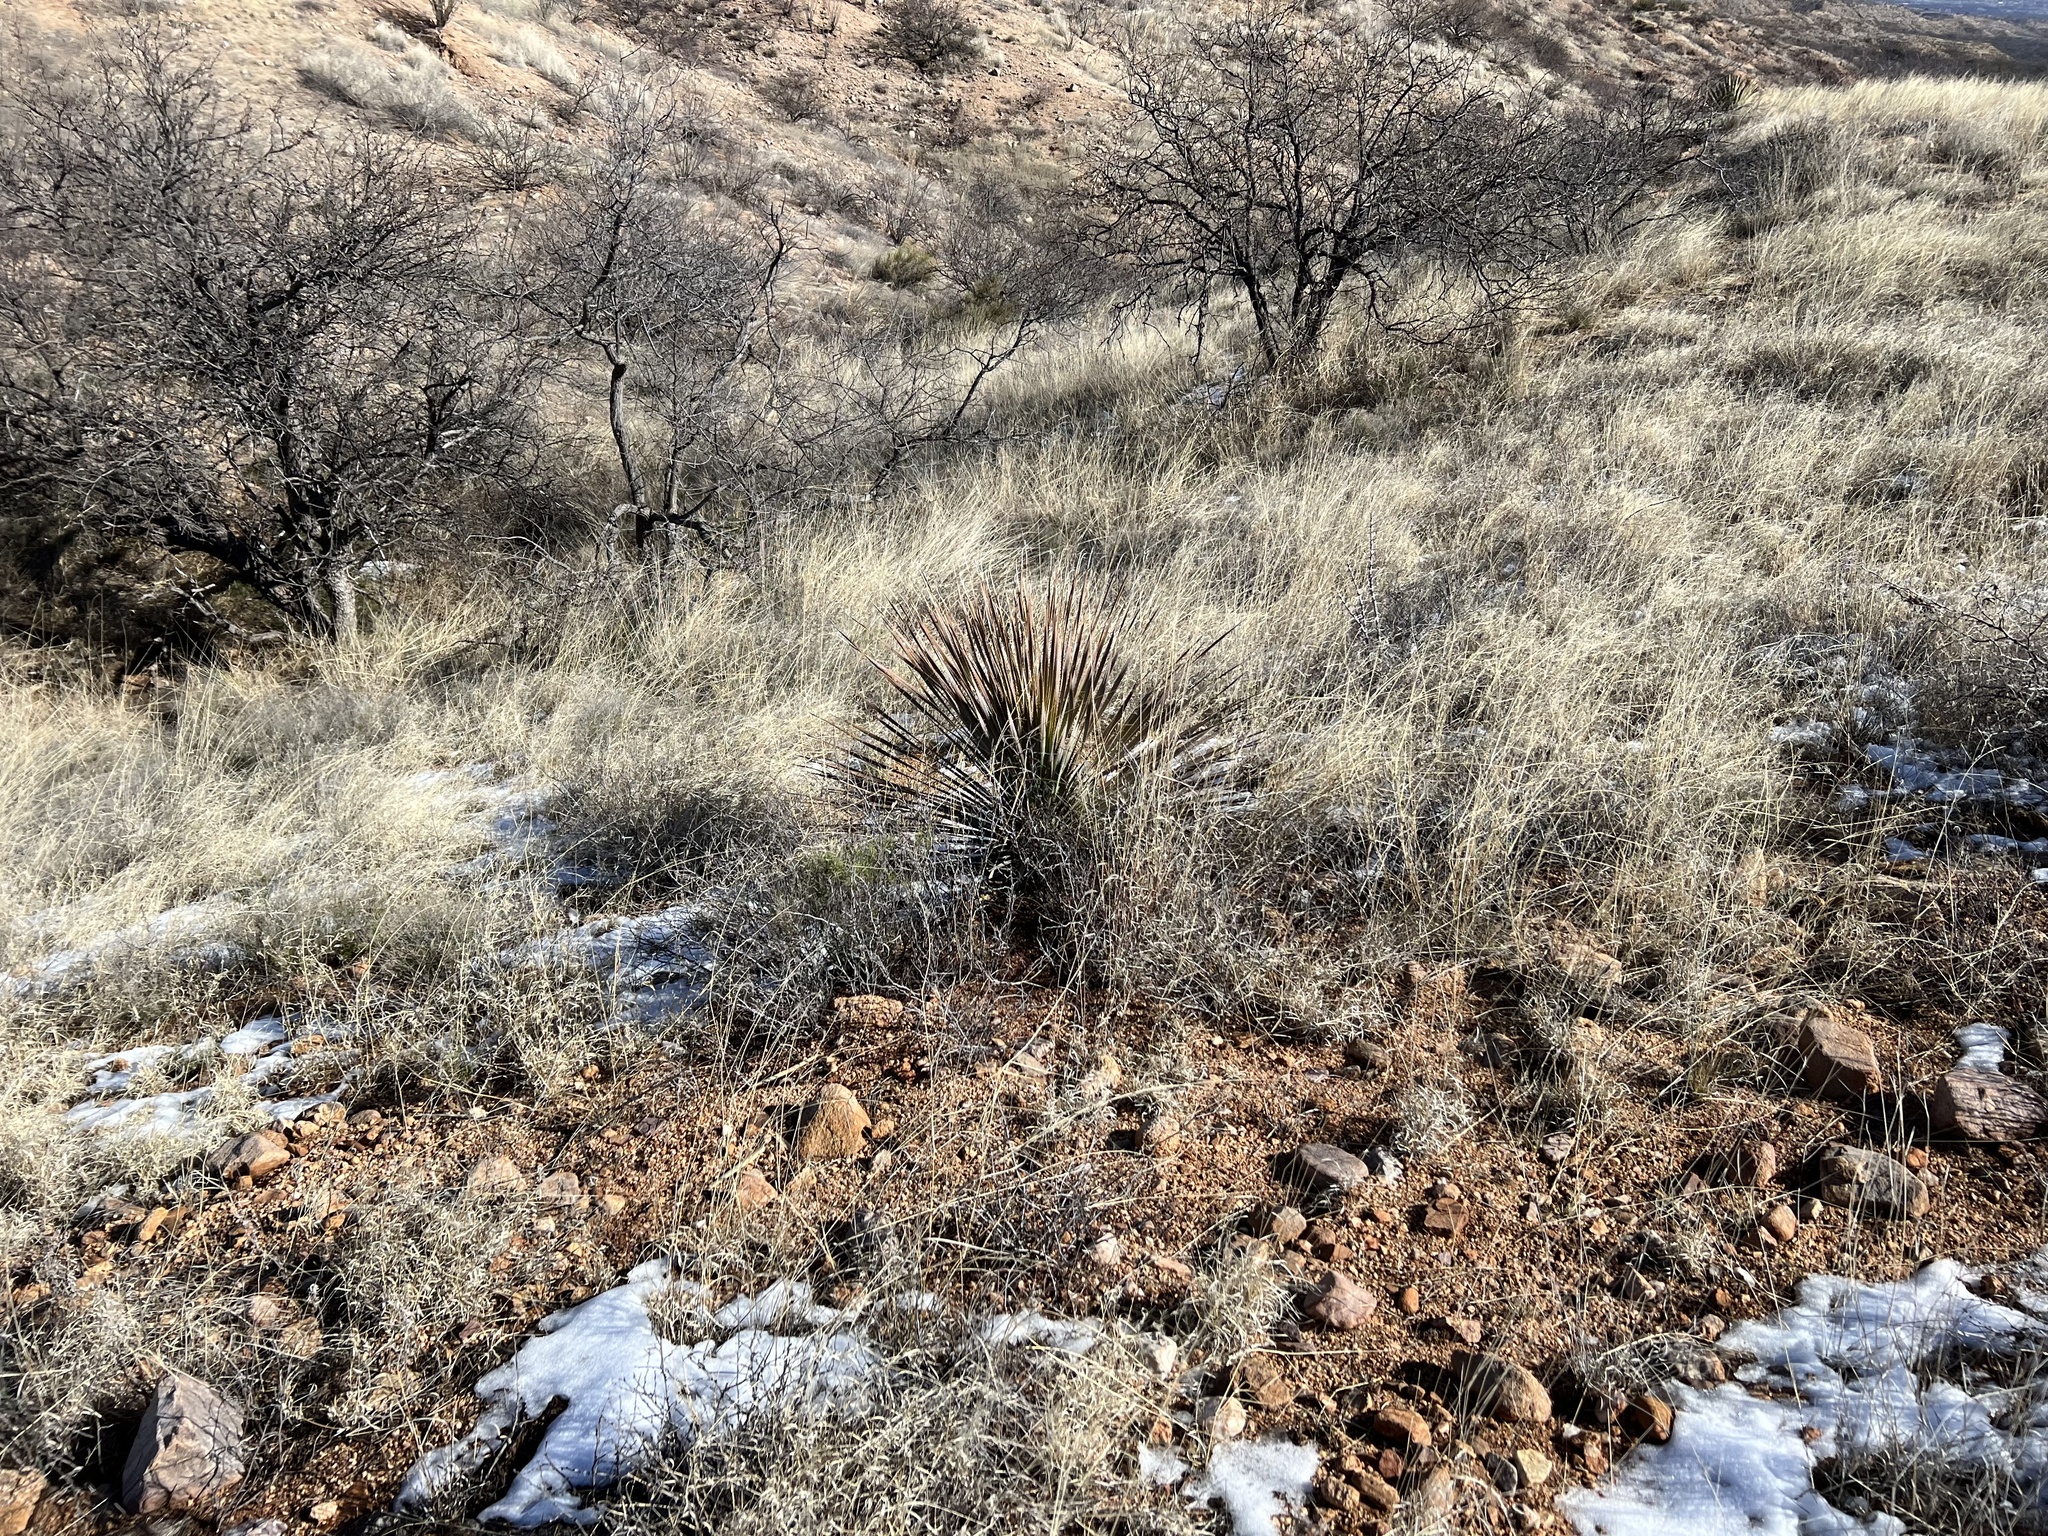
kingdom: Plantae
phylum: Tracheophyta
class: Liliopsida
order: Asparagales
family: Asparagaceae
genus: Dasylirion
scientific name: Dasylirion wheeleri
